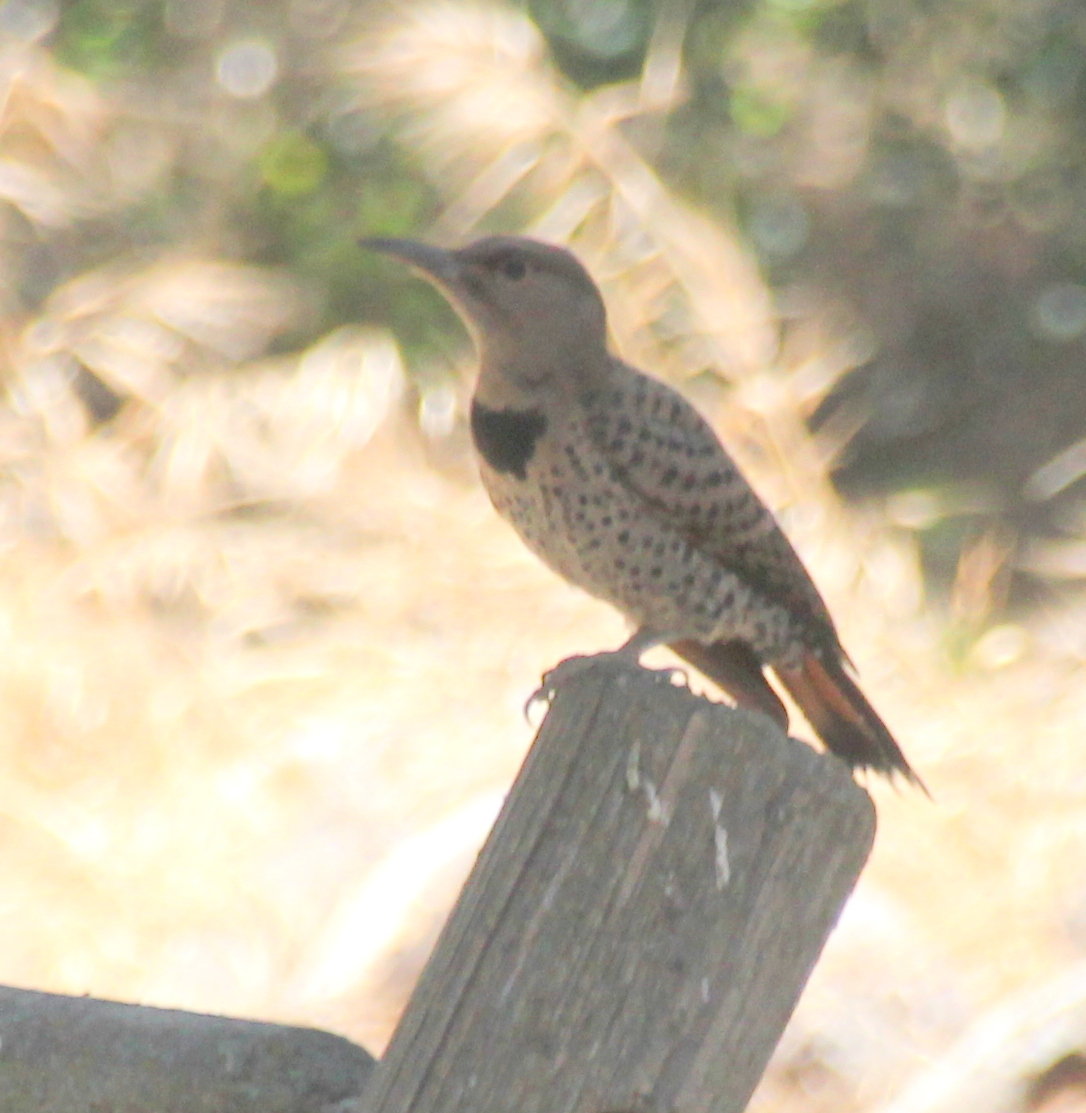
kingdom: Animalia
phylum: Chordata
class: Aves
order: Piciformes
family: Picidae
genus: Colaptes
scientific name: Colaptes auratus
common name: Northern flicker
